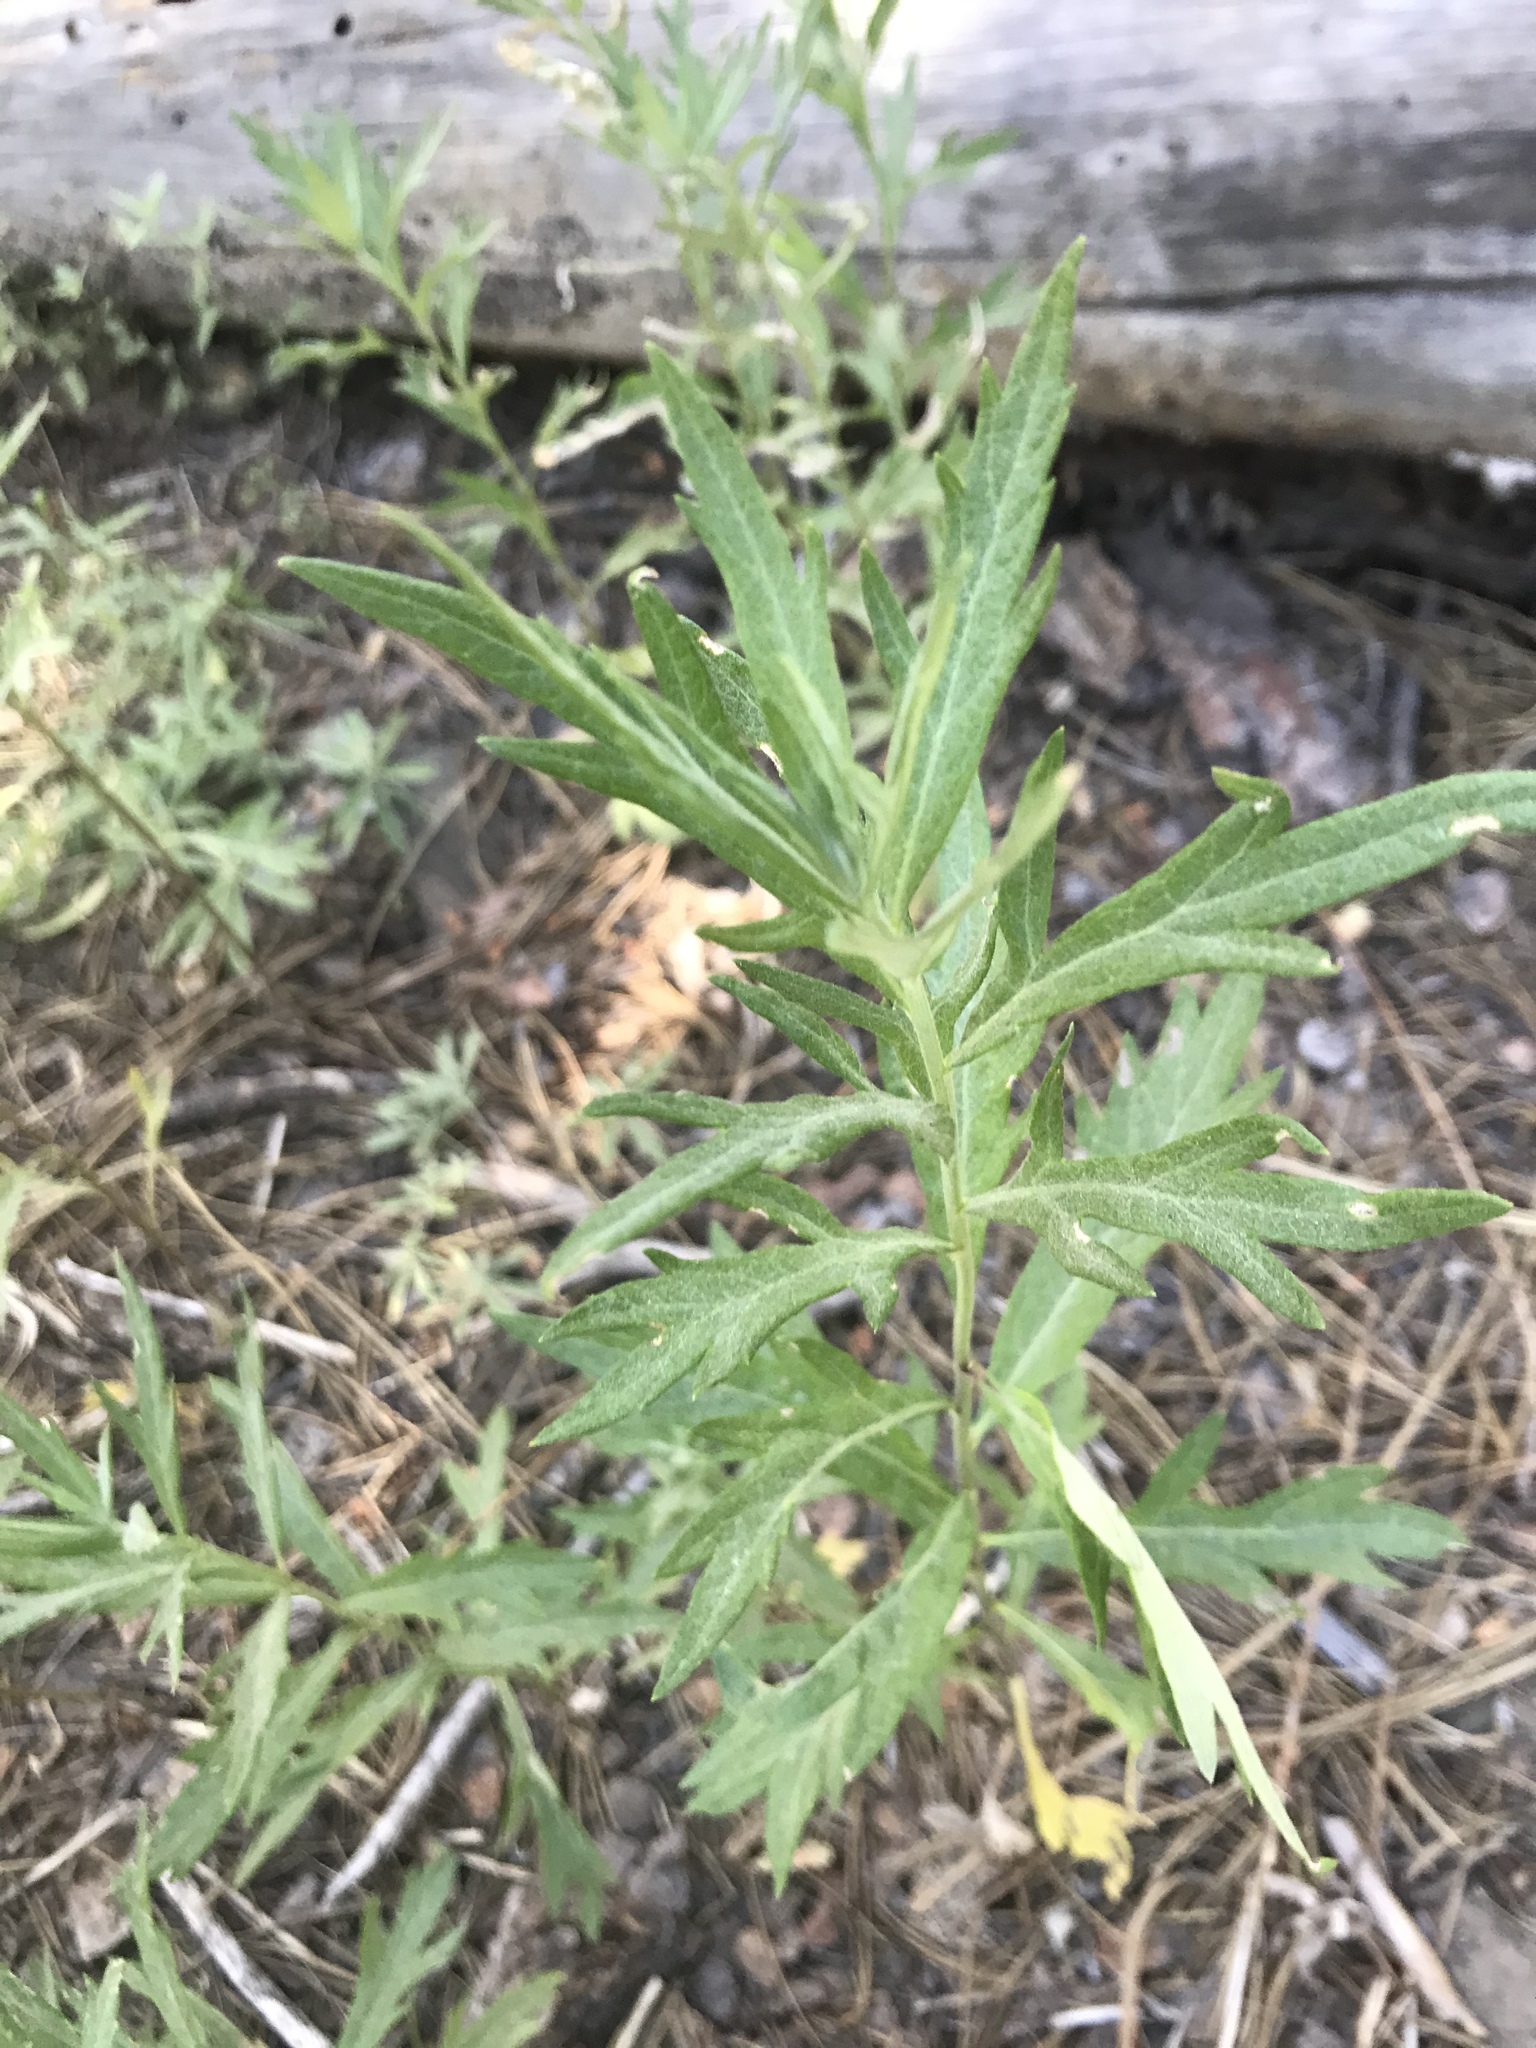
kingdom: Plantae
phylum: Tracheophyta
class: Magnoliopsida
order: Asterales
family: Asteraceae
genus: Artemisia
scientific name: Artemisia douglasiana
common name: Northwest mugwort
